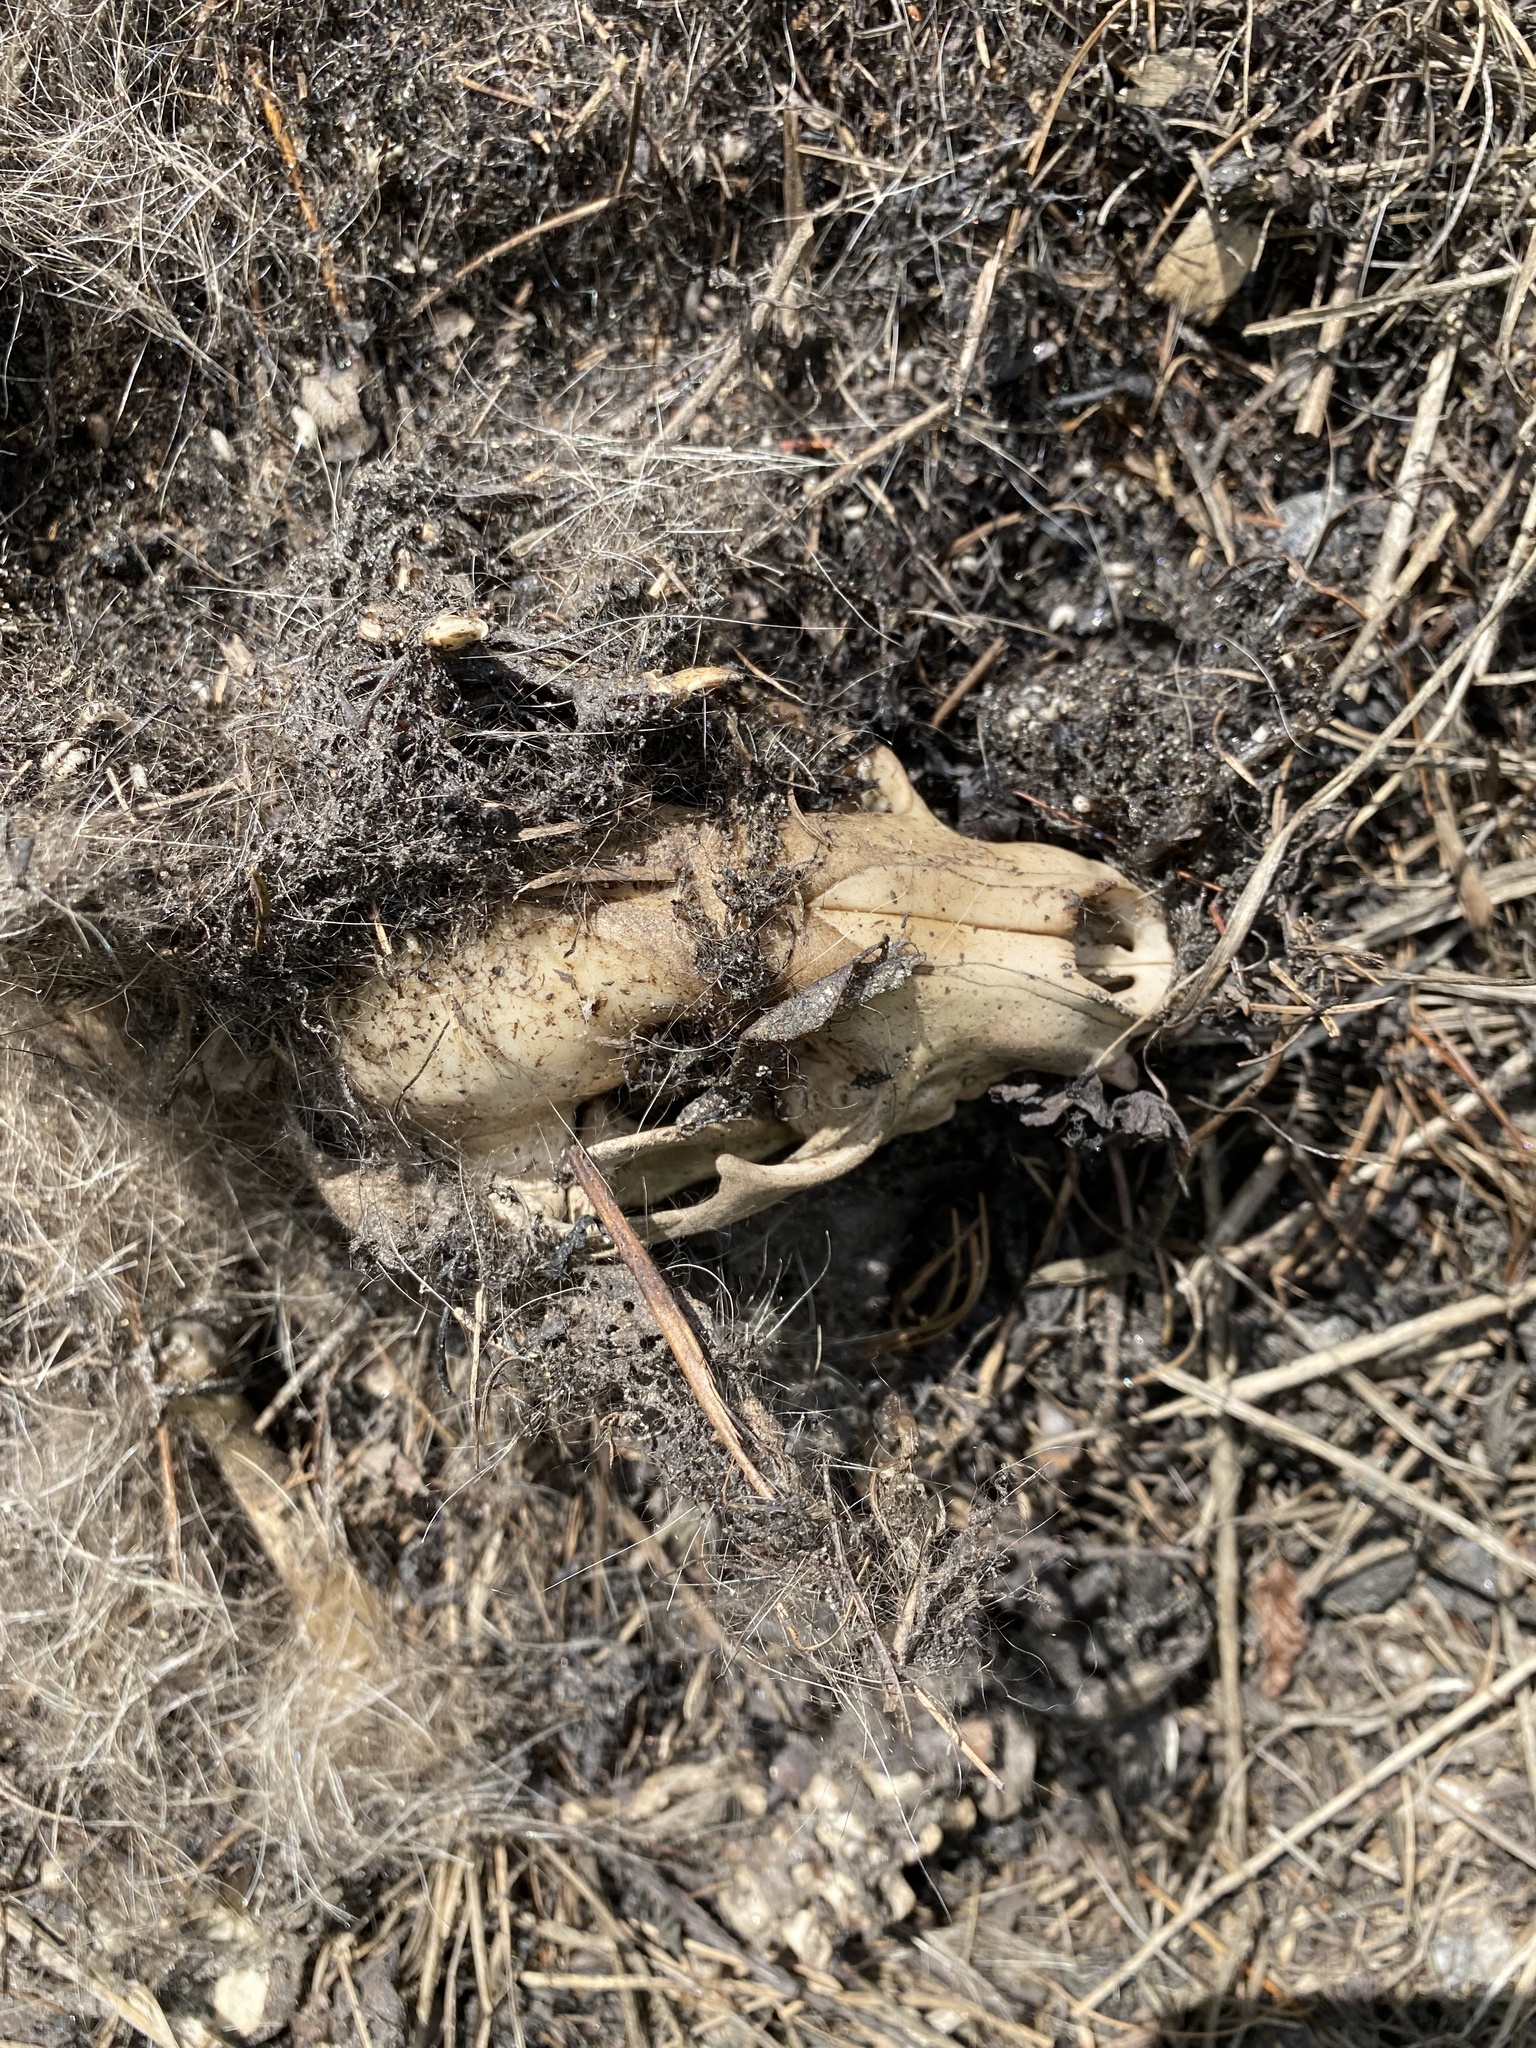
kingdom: Animalia
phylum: Chordata
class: Mammalia
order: Carnivora
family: Procyonidae
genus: Procyon
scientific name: Procyon lotor
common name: Raccoon
